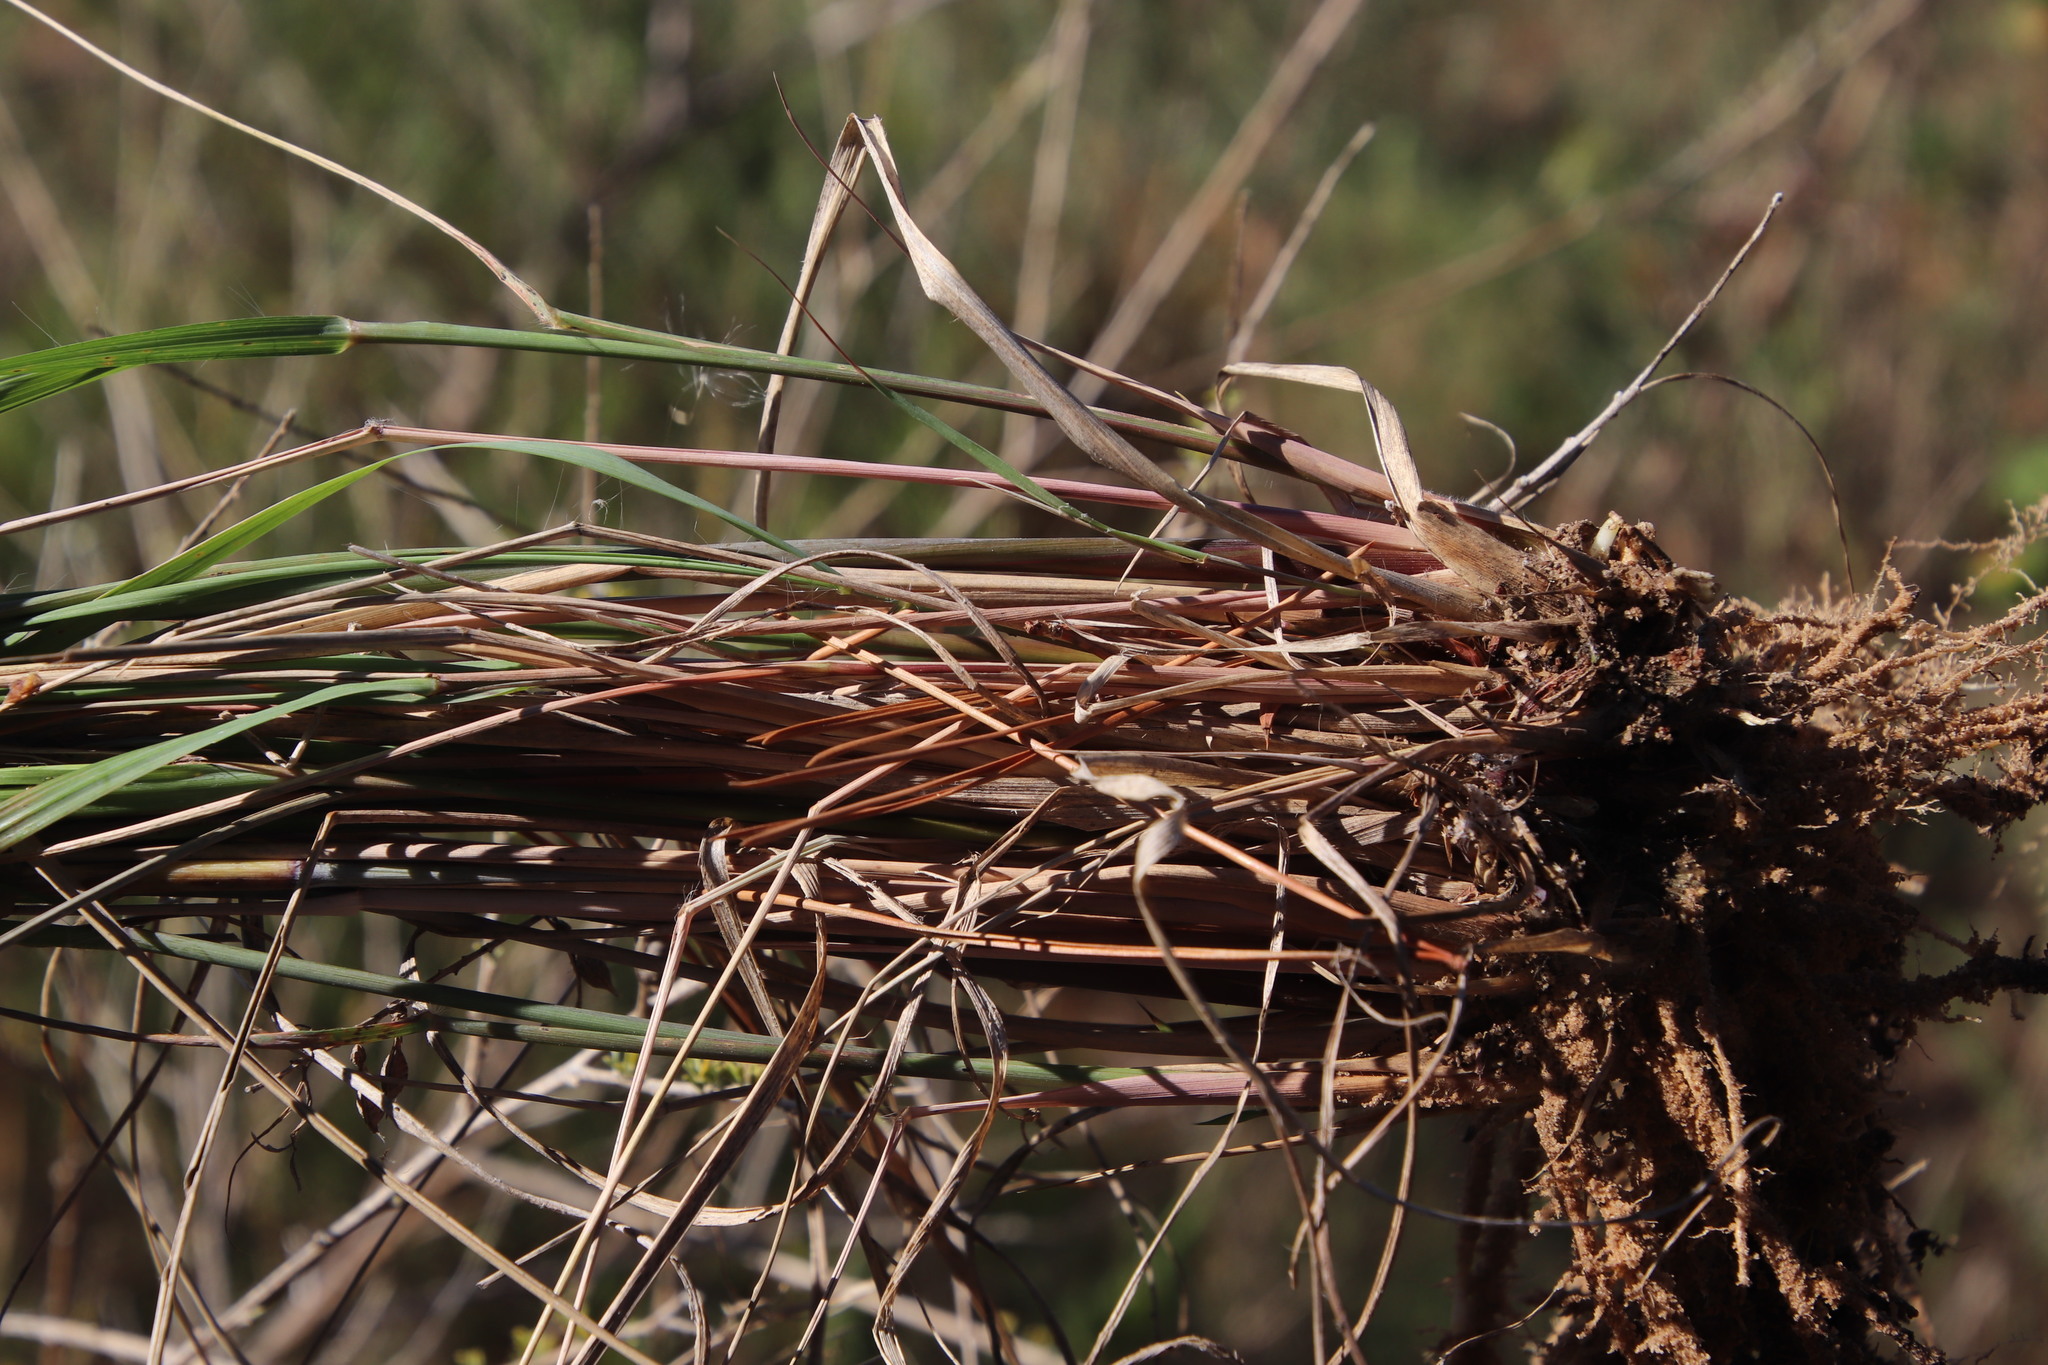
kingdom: Plantae
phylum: Tracheophyta
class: Liliopsida
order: Poales
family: Poaceae
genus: Eragrostis
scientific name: Eragrostis curvula
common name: African love-grass
